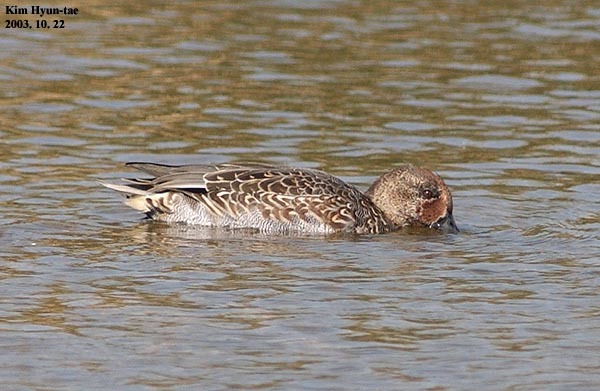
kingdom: Animalia
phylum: Chordata
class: Aves
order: Anseriformes
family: Anatidae
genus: Anas
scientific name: Anas crecca
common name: Eurasian teal
